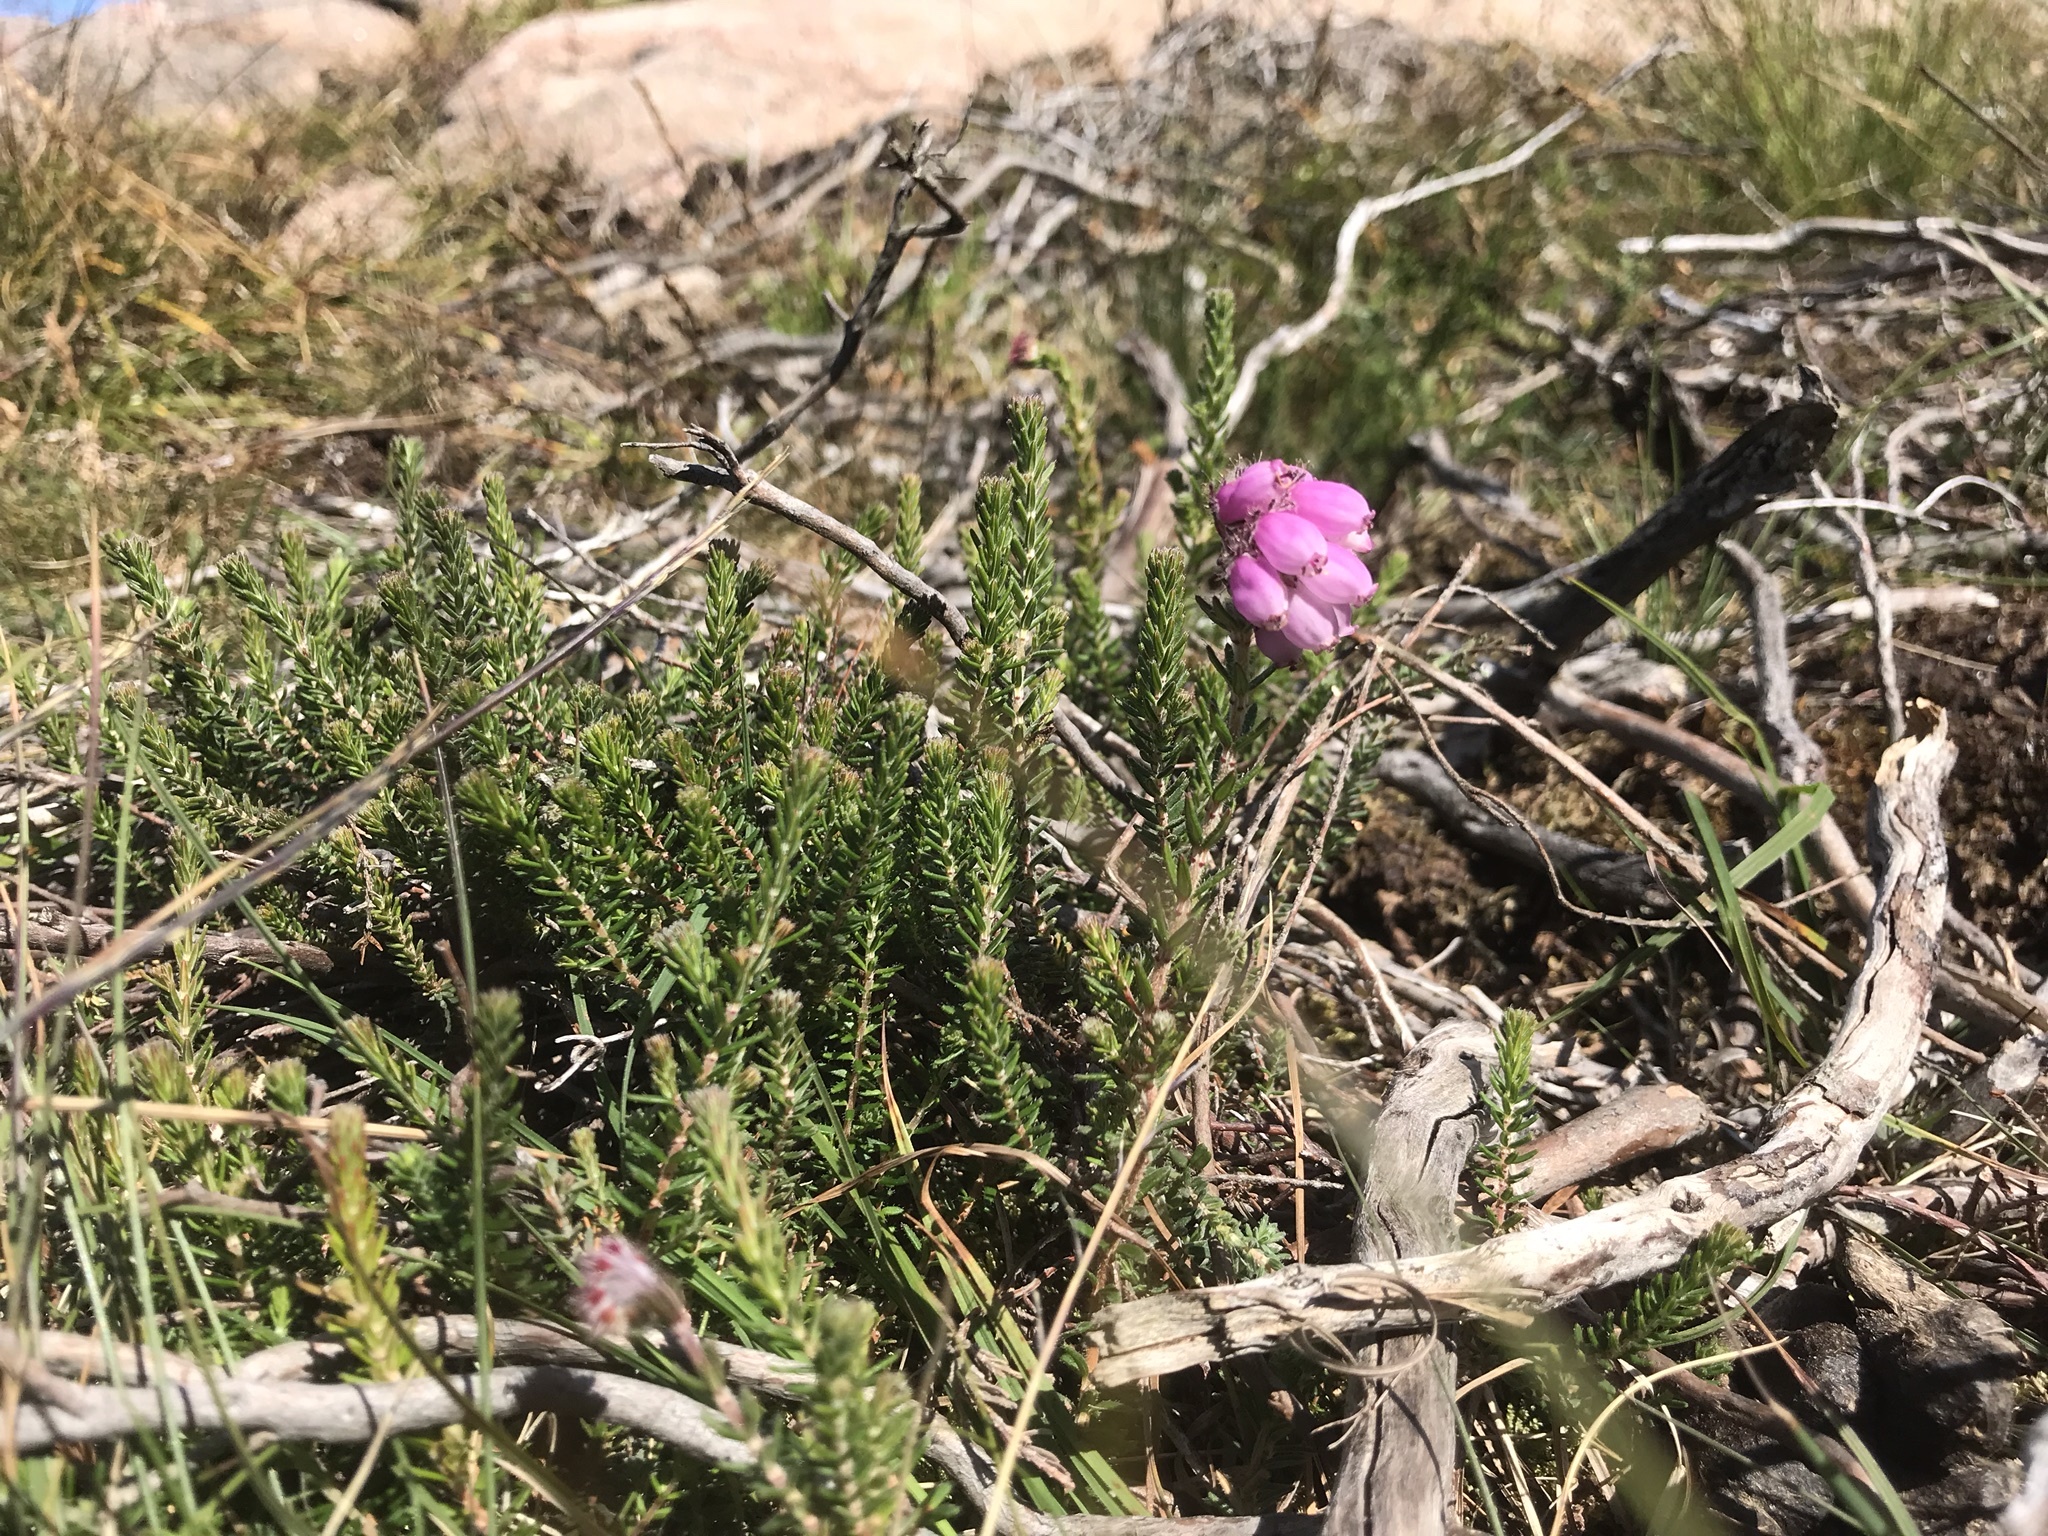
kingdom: Plantae
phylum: Tracheophyta
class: Magnoliopsida
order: Ericales
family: Ericaceae
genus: Erica
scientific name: Erica tetralix
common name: Cross-leaved heath
